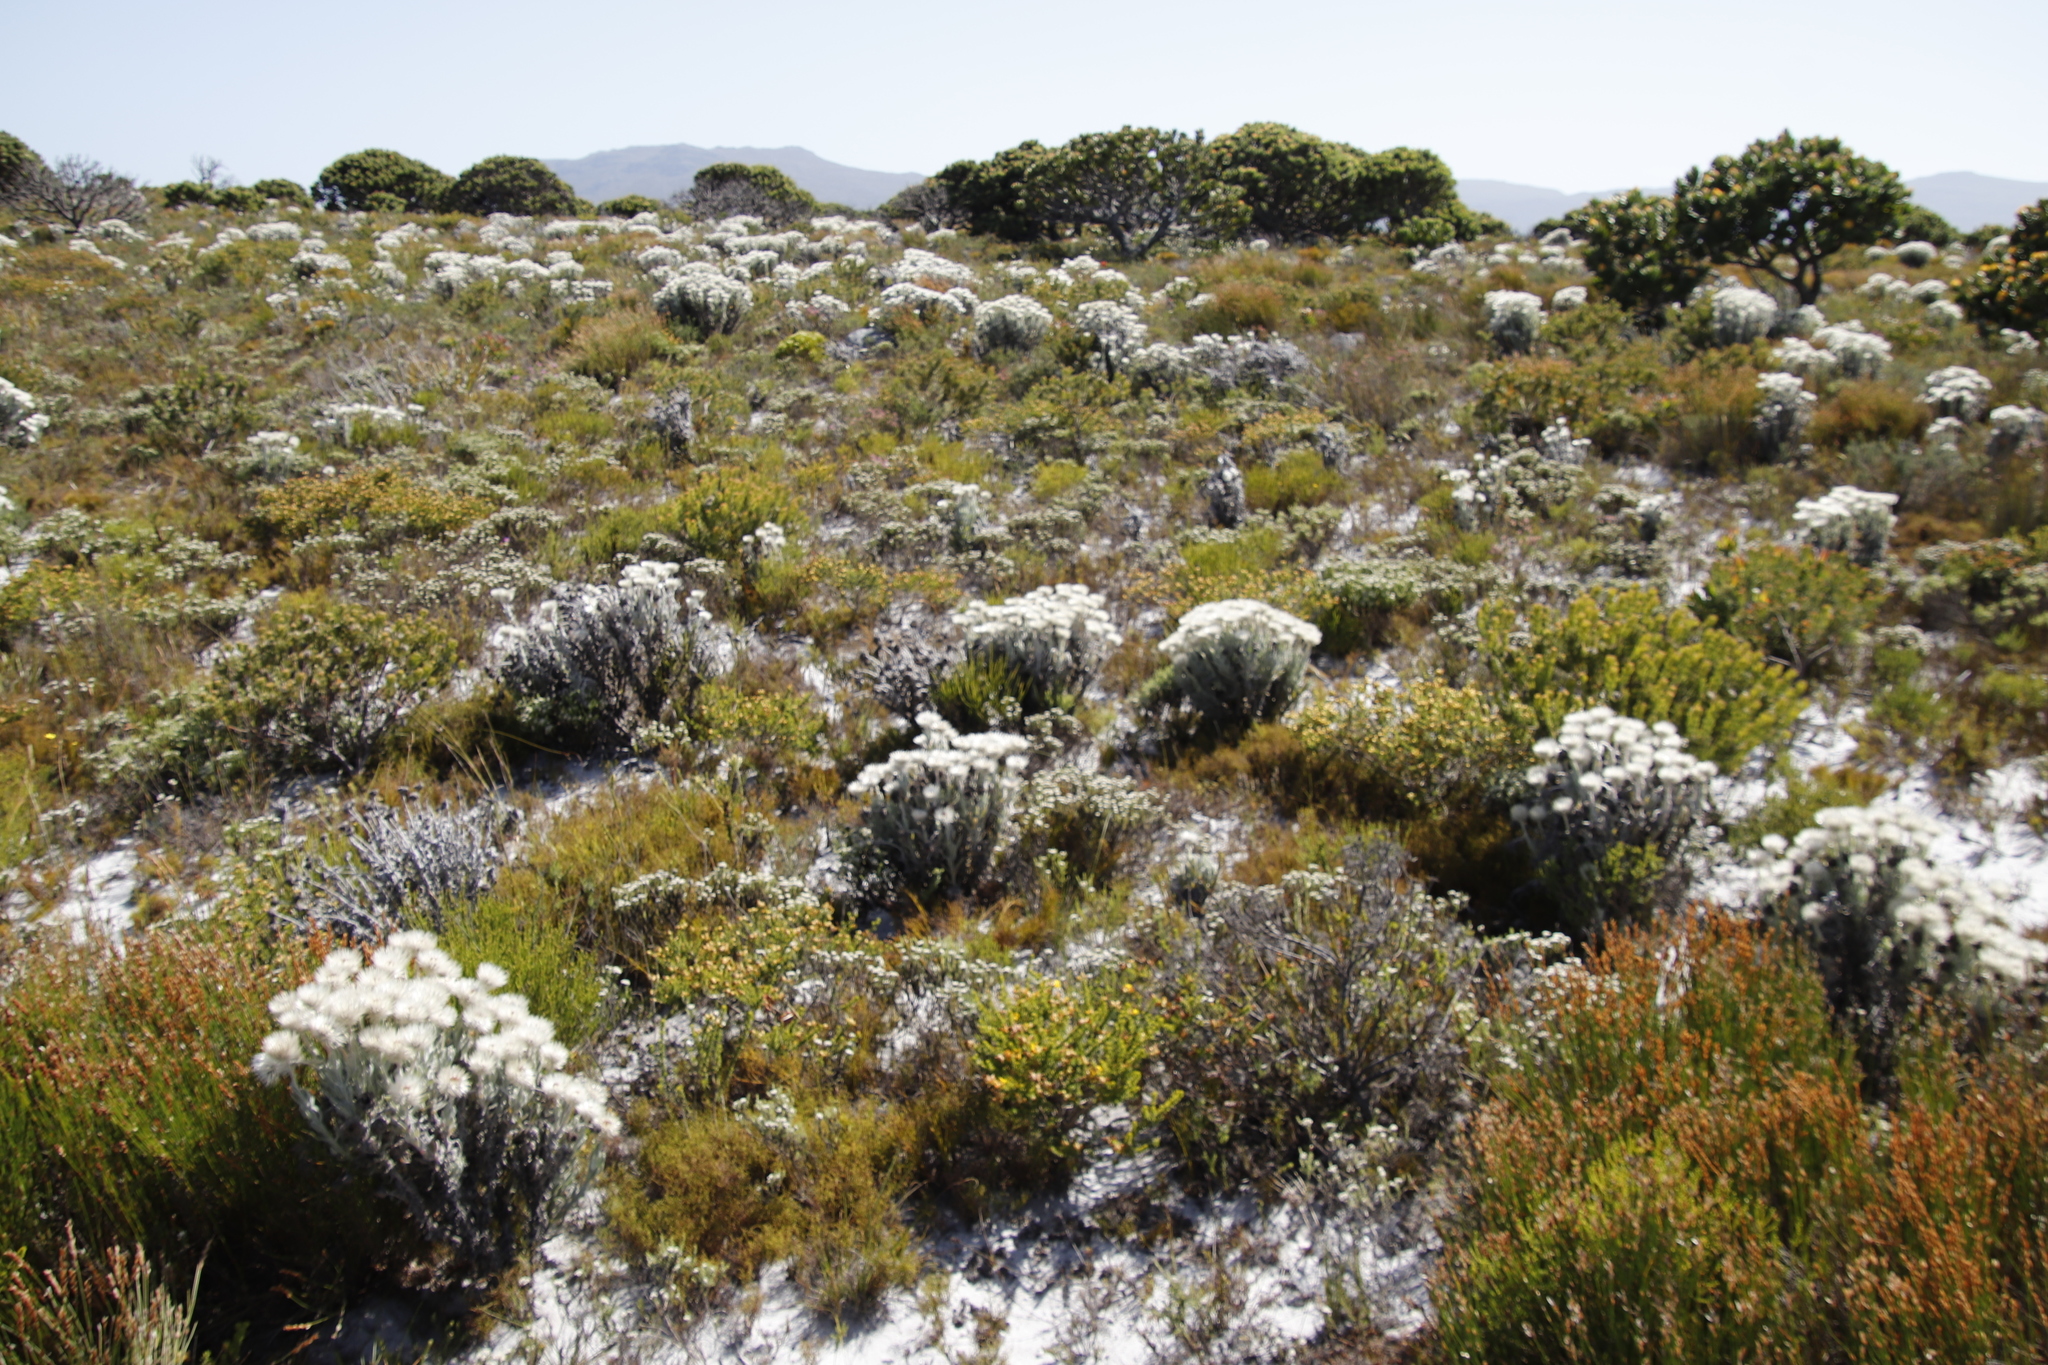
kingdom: Plantae
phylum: Tracheophyta
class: Magnoliopsida
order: Asterales
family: Asteraceae
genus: Syncarpha
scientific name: Syncarpha vestita
